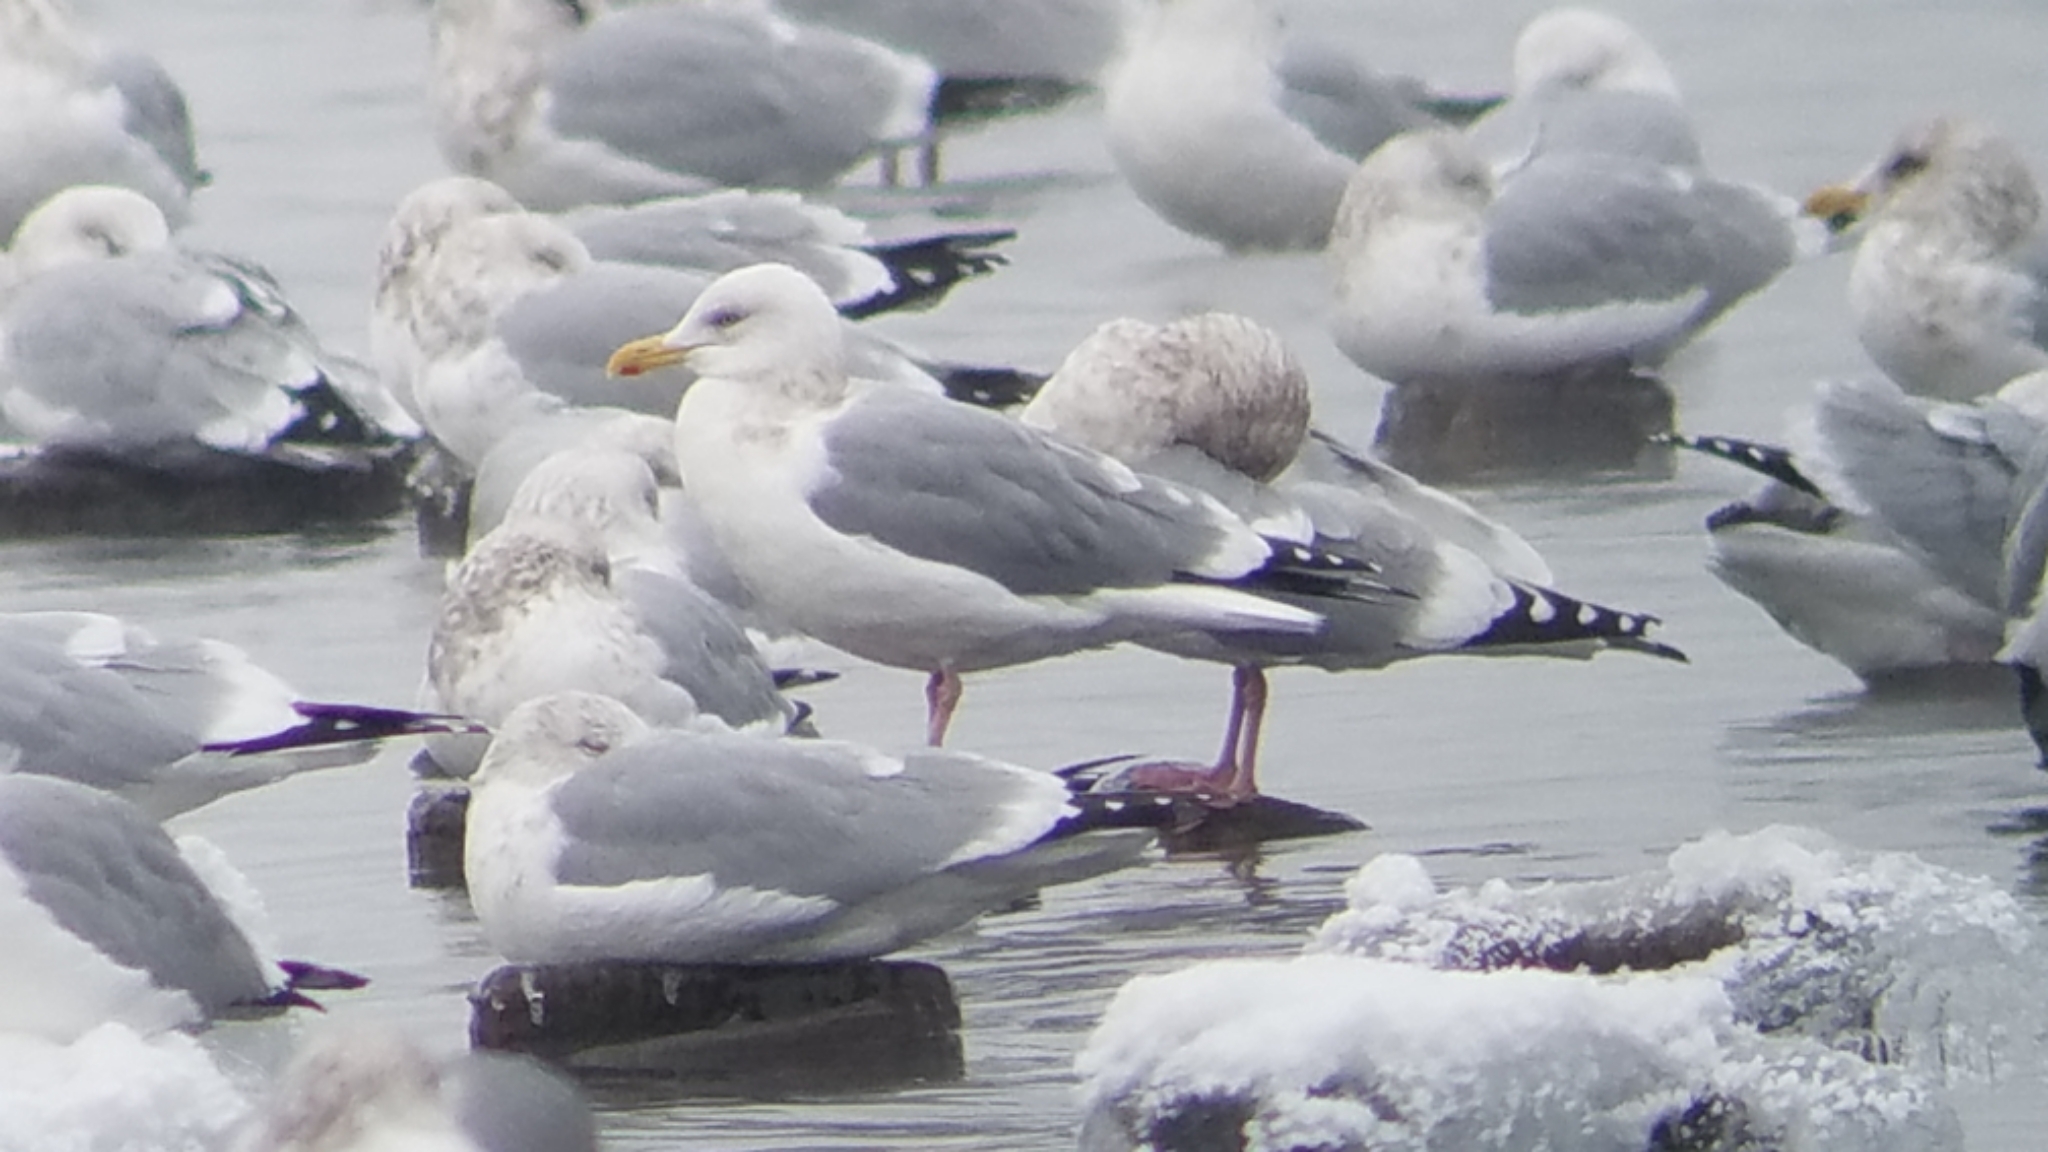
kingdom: Animalia
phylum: Chordata
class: Aves
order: Charadriiformes
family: Laridae
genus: Larus
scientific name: Larus argentatus
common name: Herring gull
